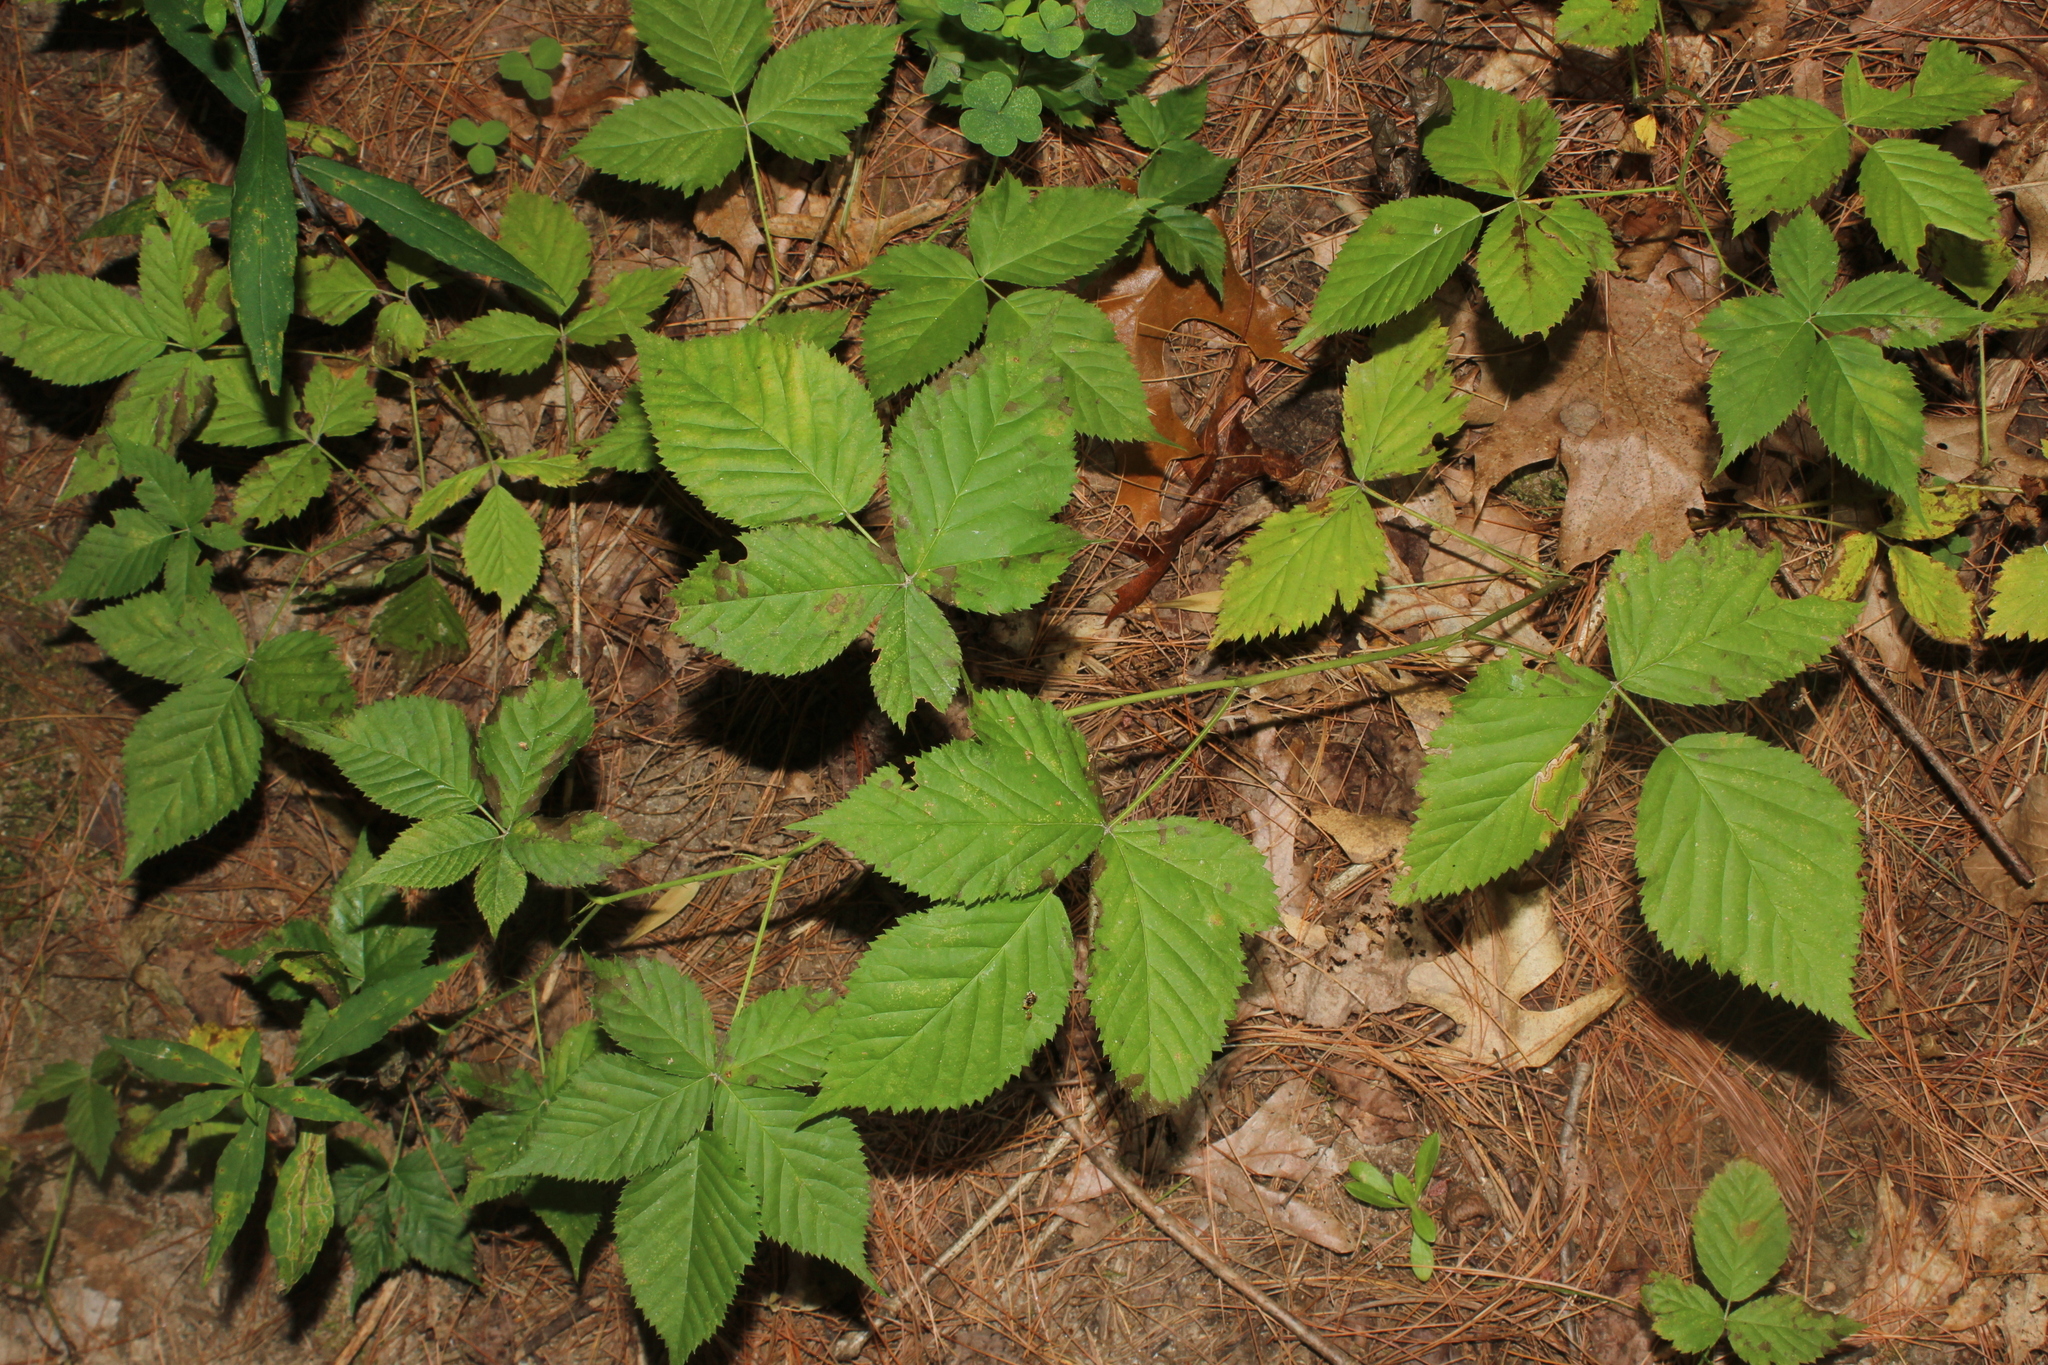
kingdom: Animalia
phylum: Arthropoda
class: Insecta
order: Lepidoptera
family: Nepticulidae
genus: Stigmella
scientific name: Stigmella villosella
